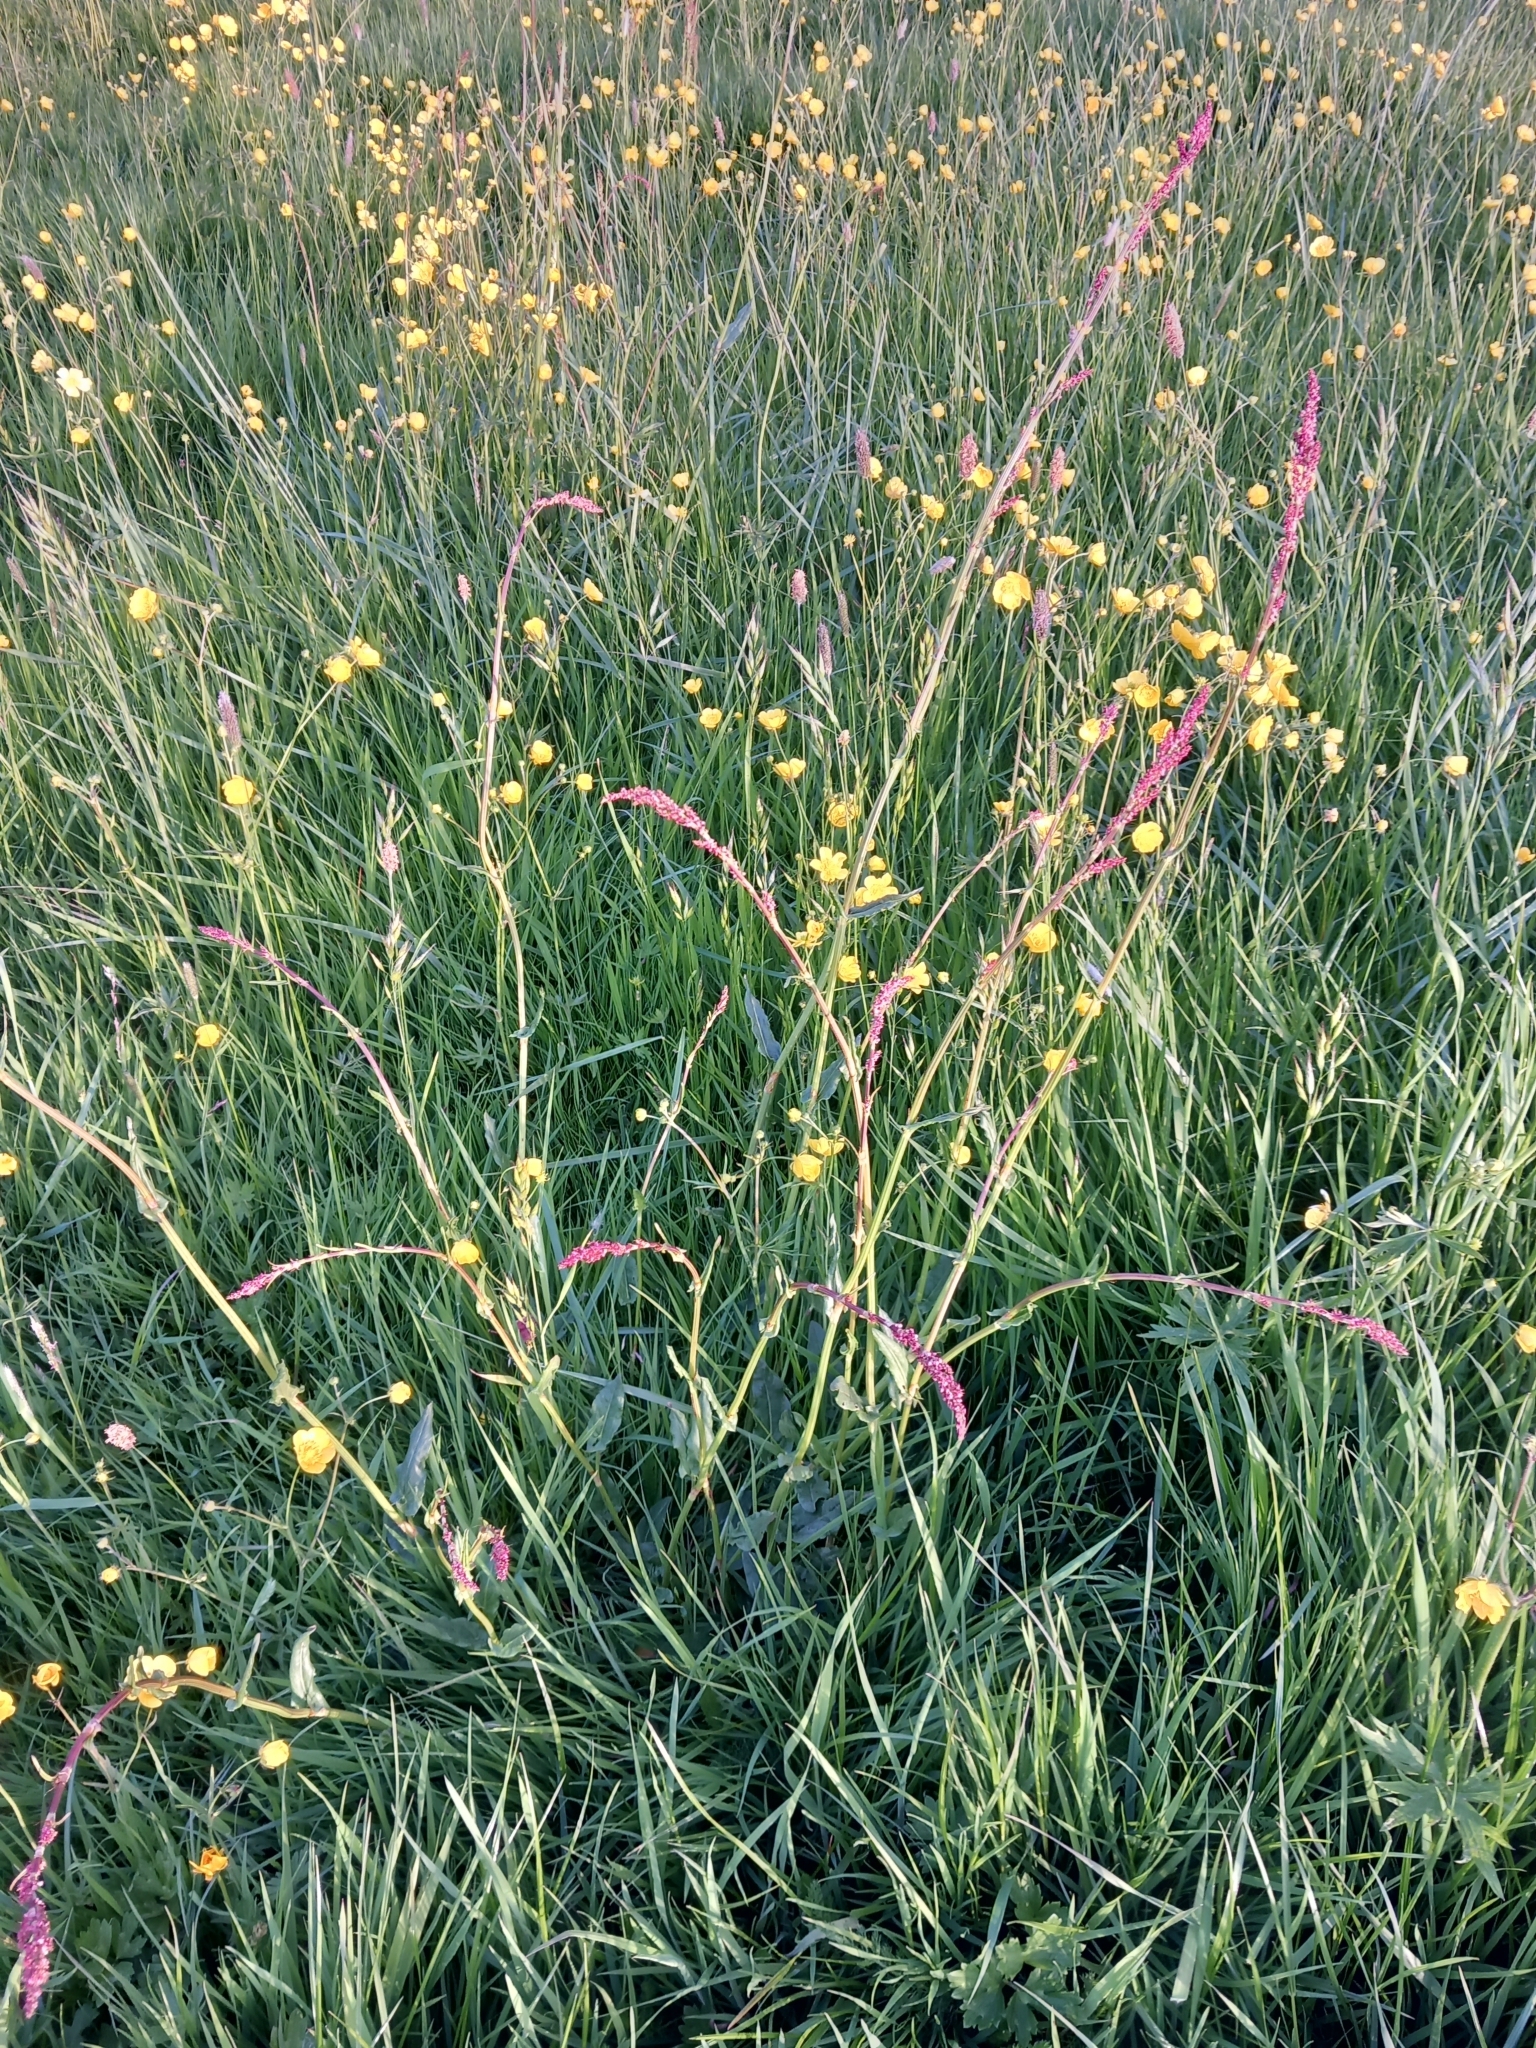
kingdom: Plantae
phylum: Tracheophyta
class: Magnoliopsida
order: Caryophyllales
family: Polygonaceae
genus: Rumex
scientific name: Rumex acetosa
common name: Garden sorrel
